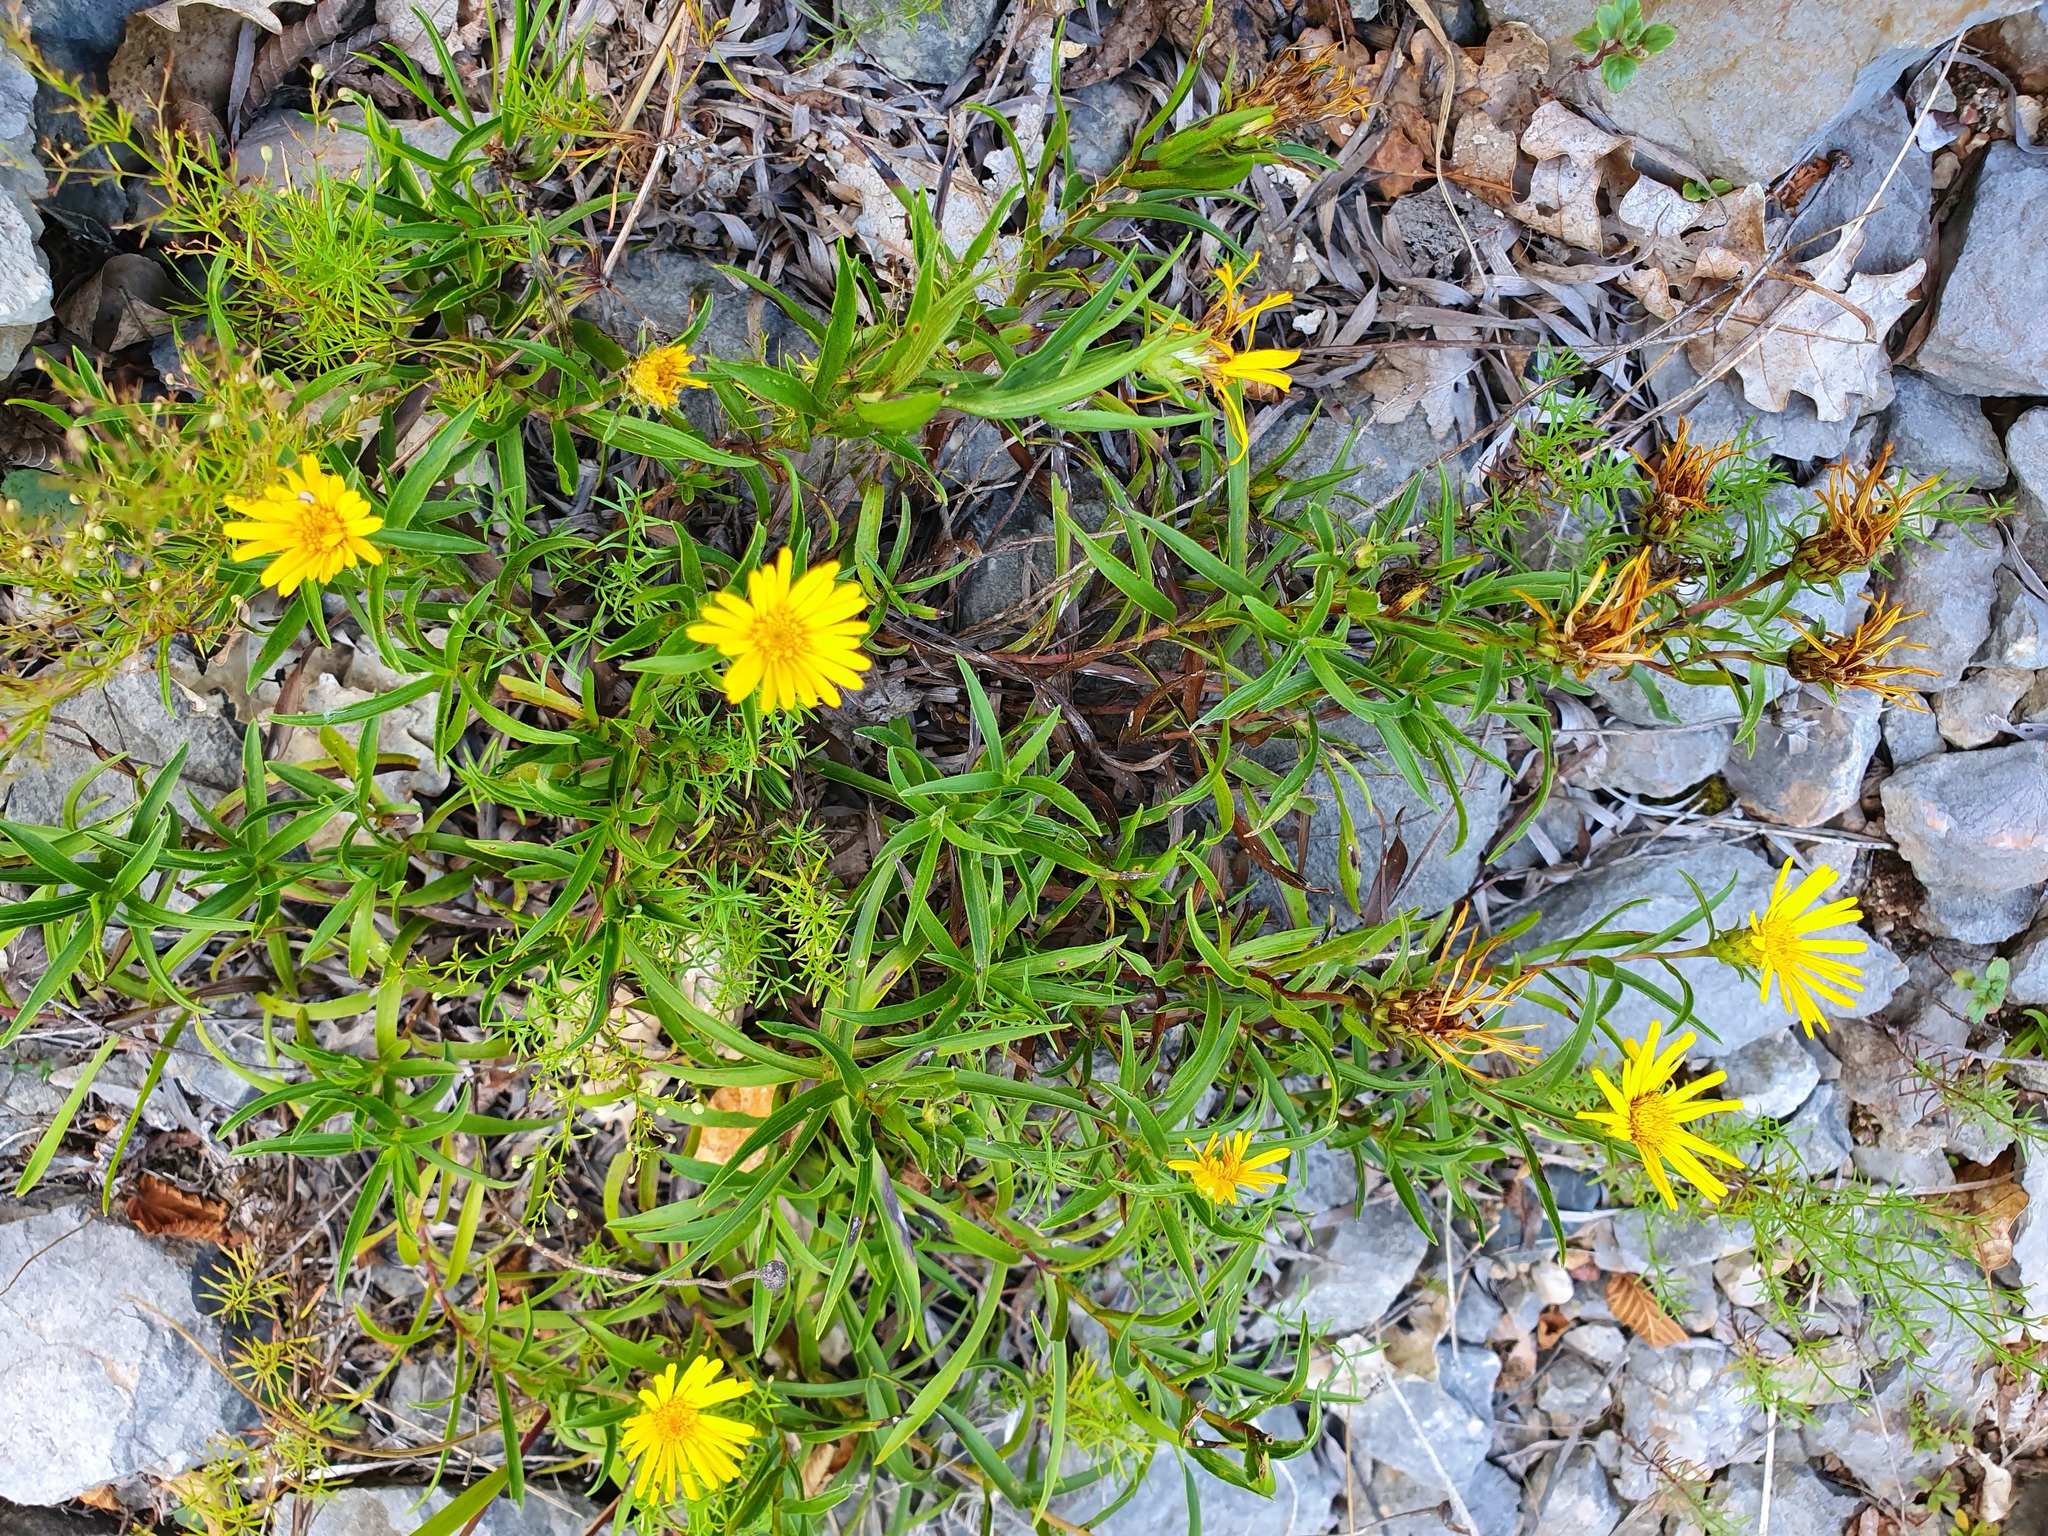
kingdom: Plantae
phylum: Tracheophyta
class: Magnoliopsida
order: Asterales
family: Asteraceae
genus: Pentanema
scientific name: Pentanema ensifolium
